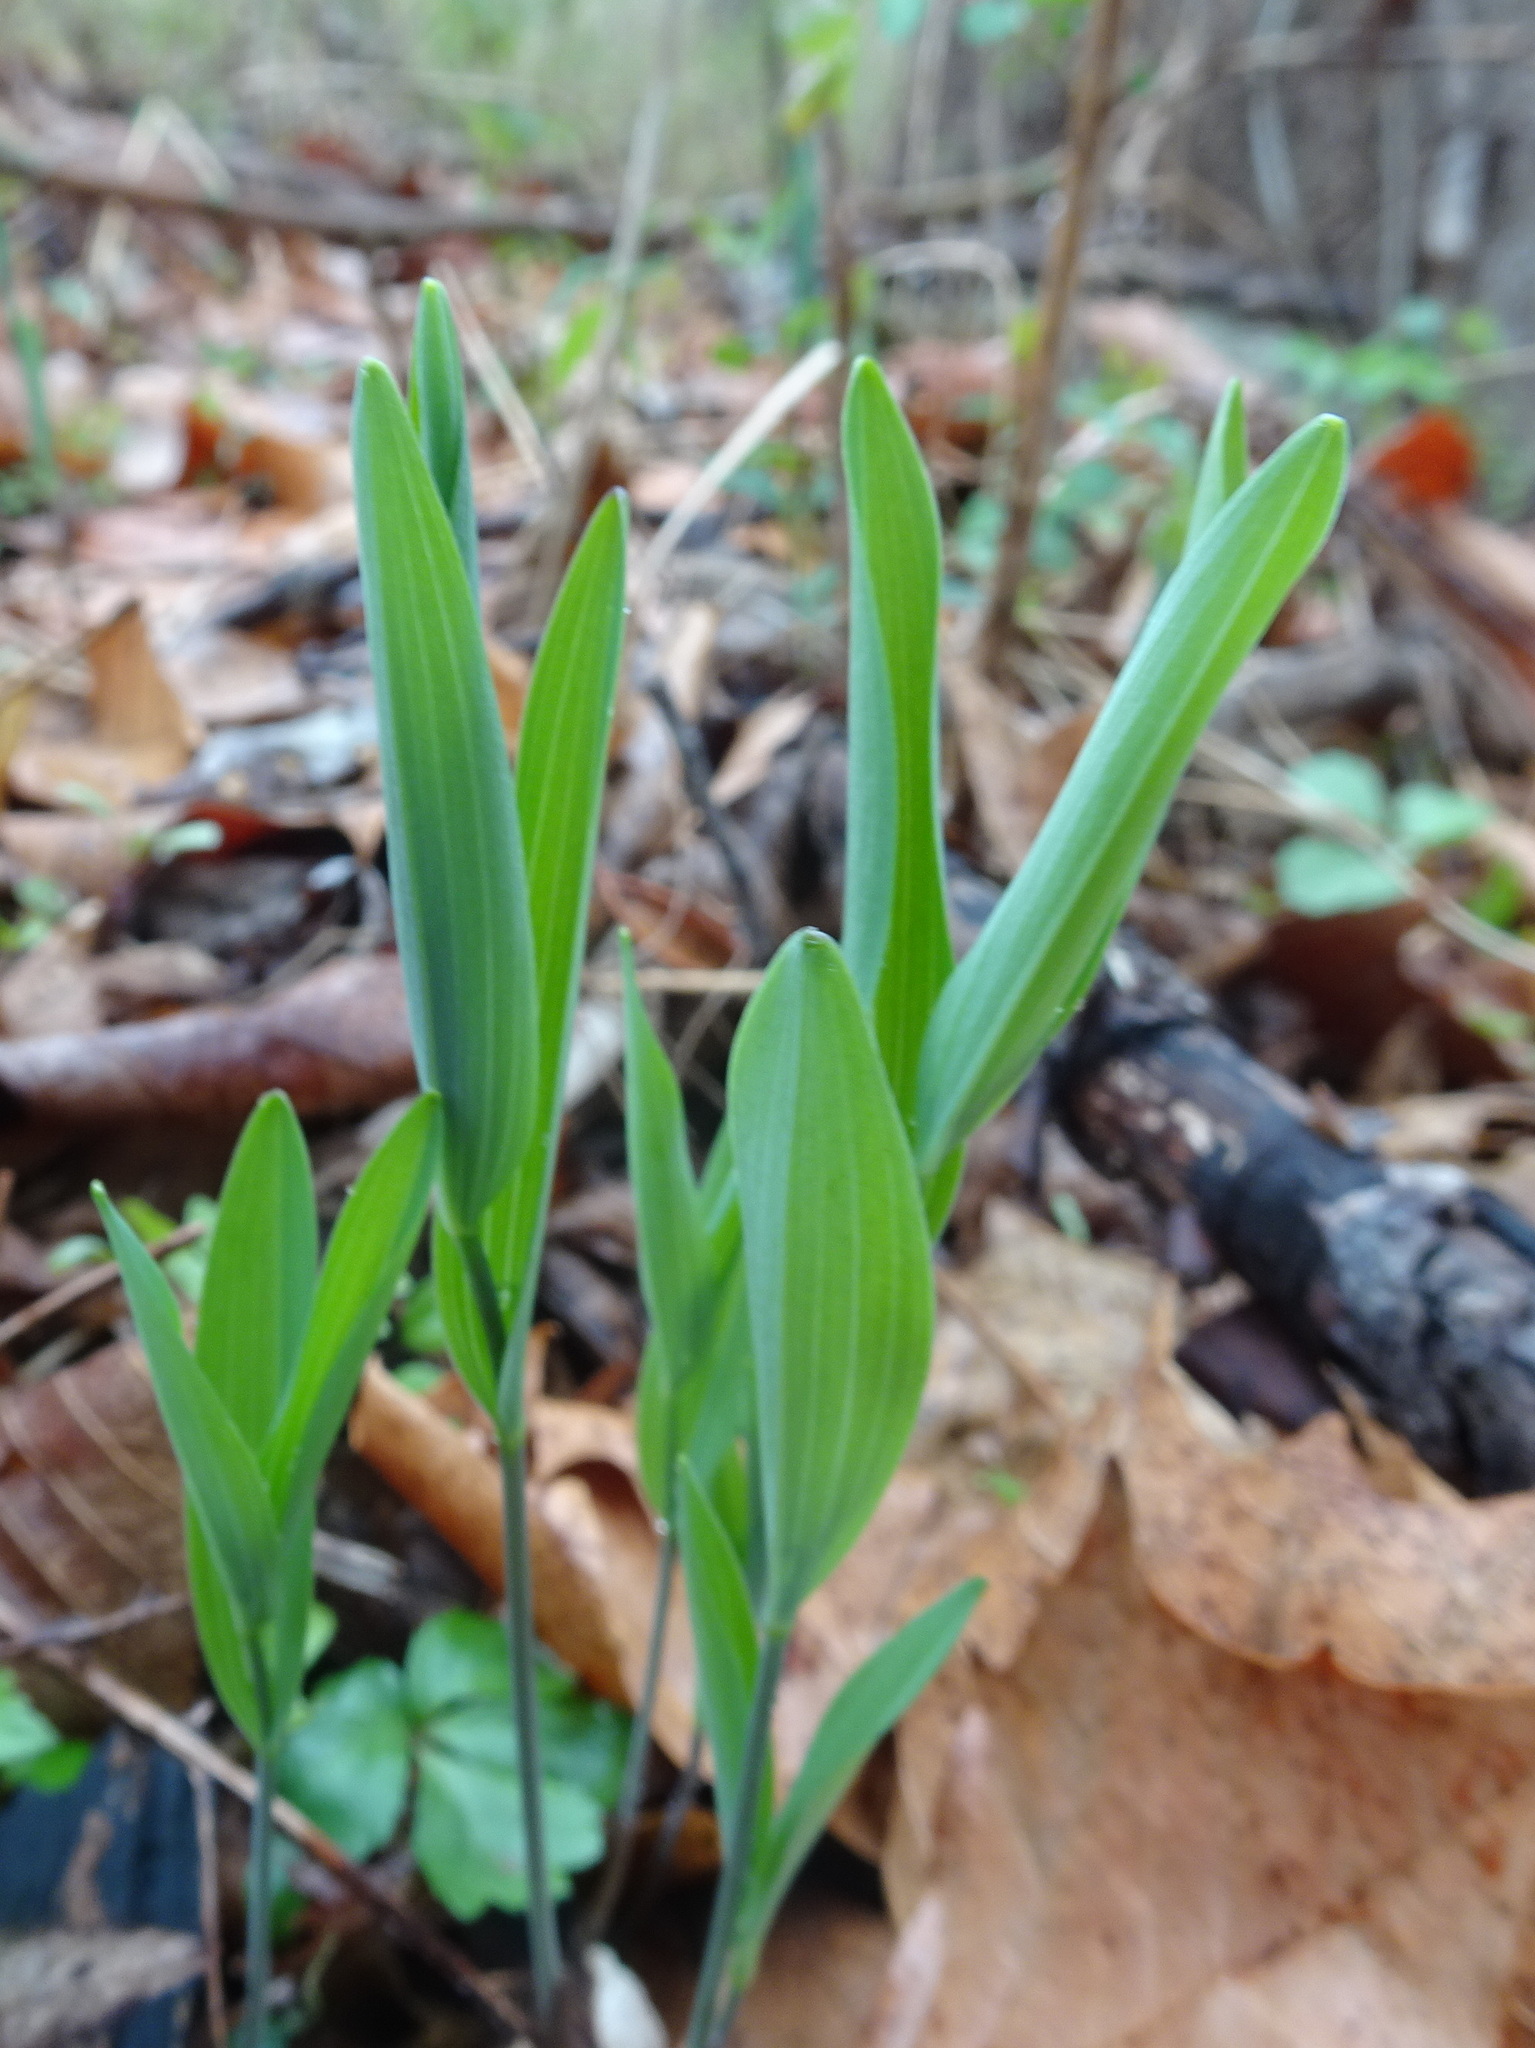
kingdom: Plantae
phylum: Tracheophyta
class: Liliopsida
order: Asparagales
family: Asparagaceae
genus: Polygonatum
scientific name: Polygonatum biflorum
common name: American solomon's-seal
